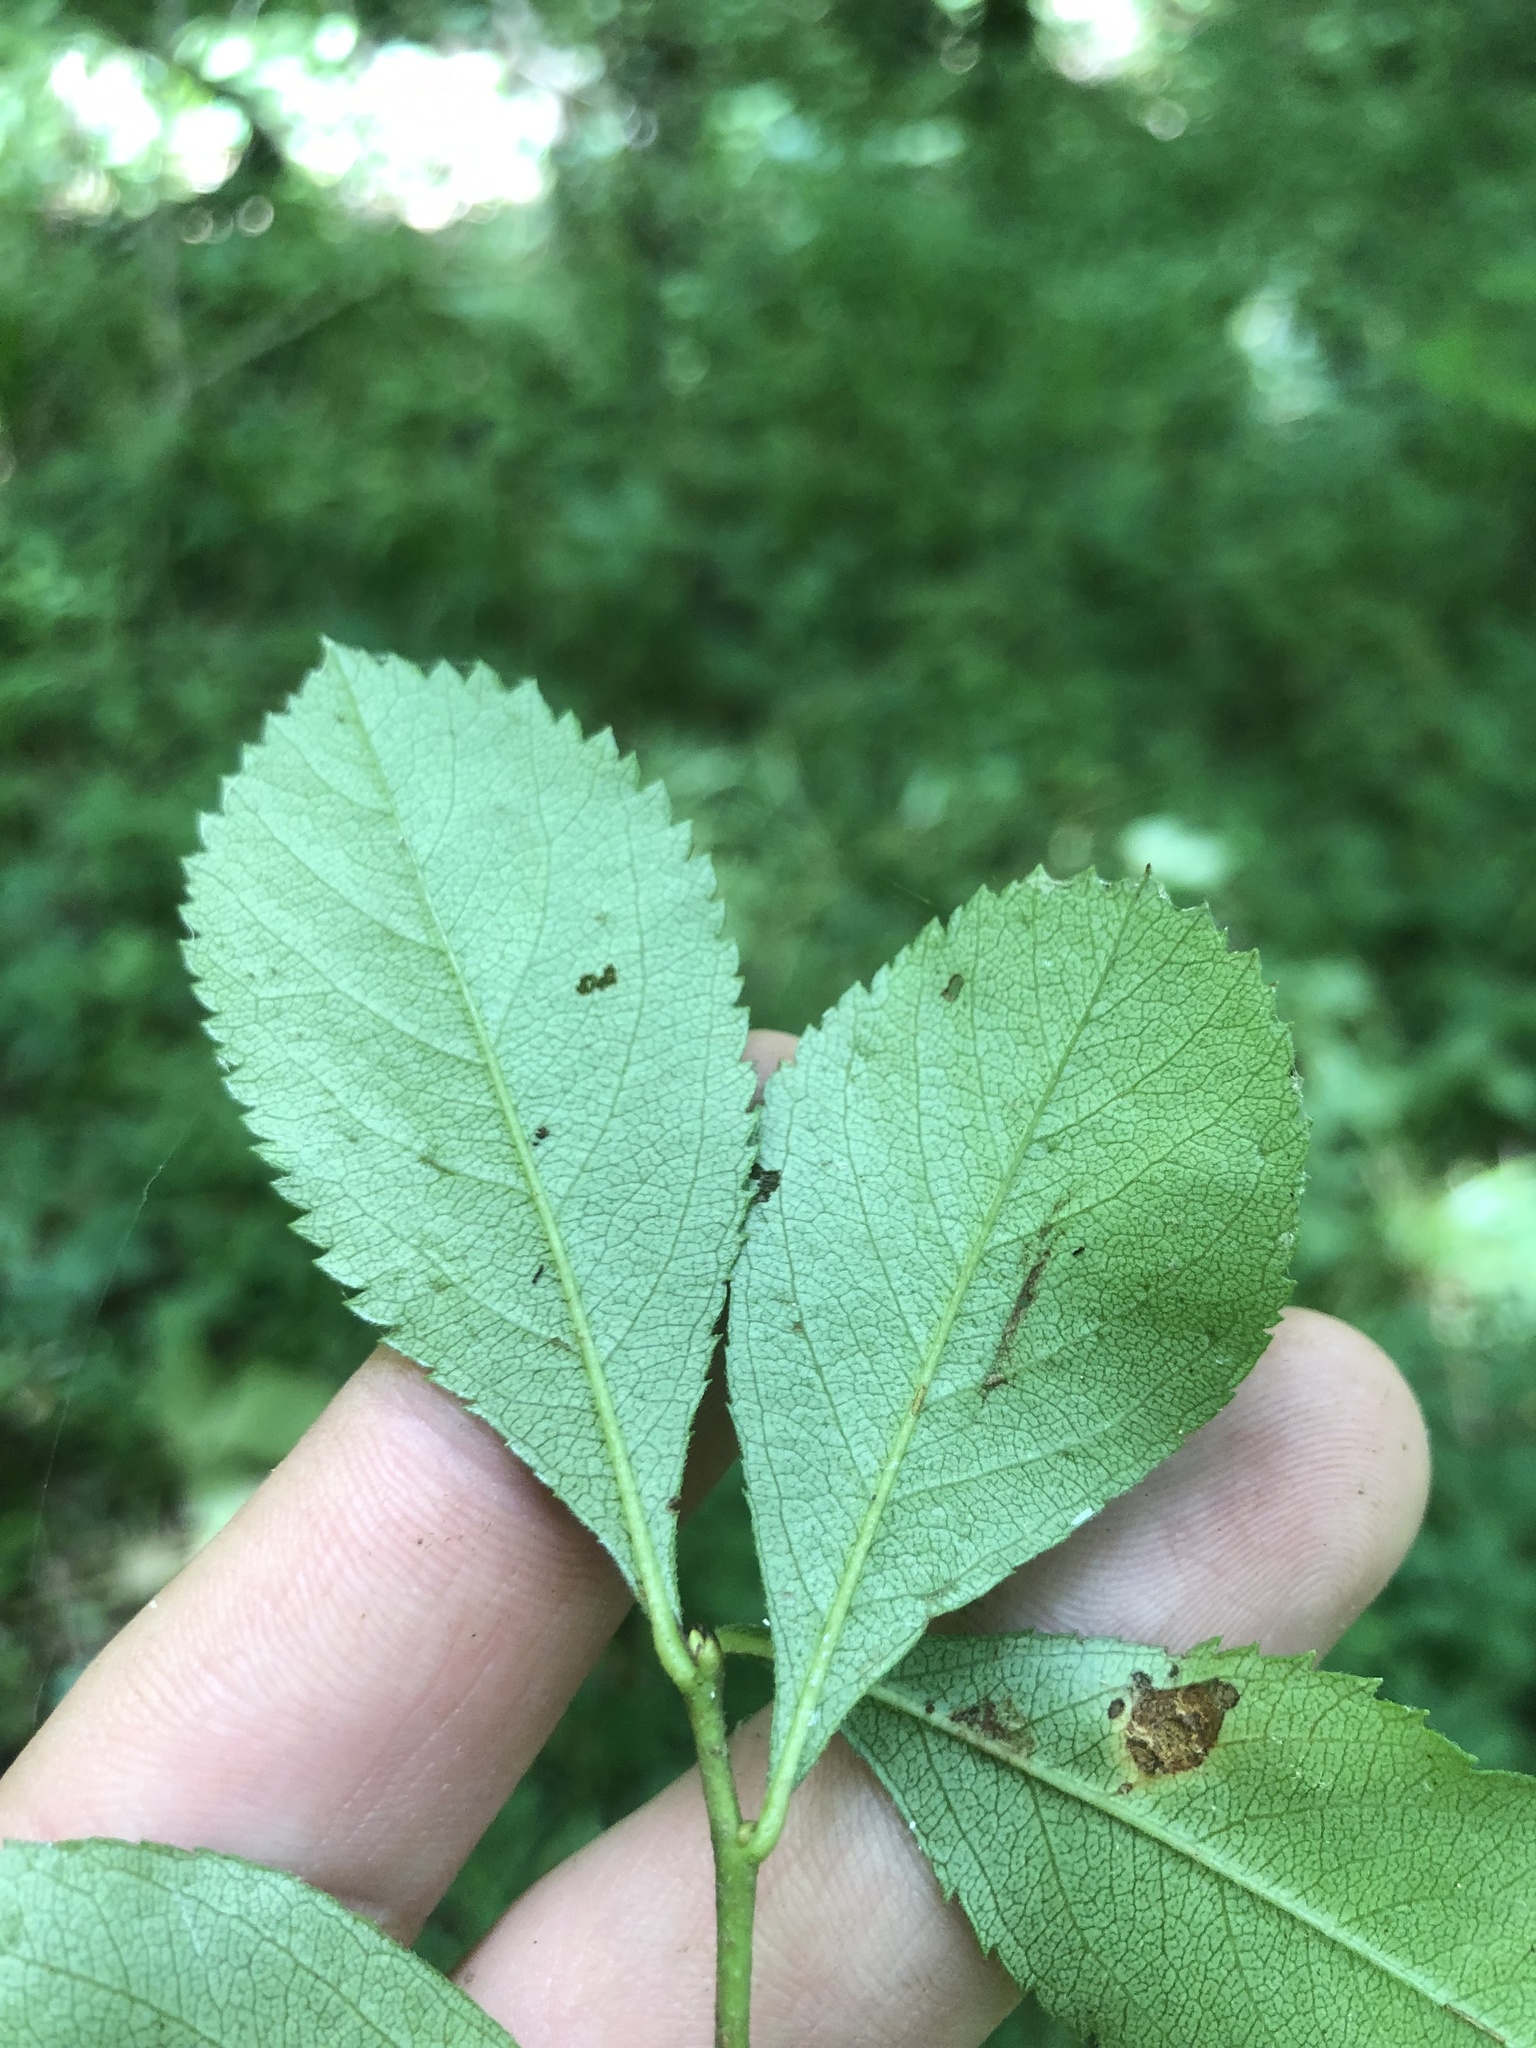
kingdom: Plantae
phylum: Tracheophyta
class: Magnoliopsida
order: Rosales
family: Rosaceae
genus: Crataegus
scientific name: Crataegus berberifolia
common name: Barberry hawthorn
